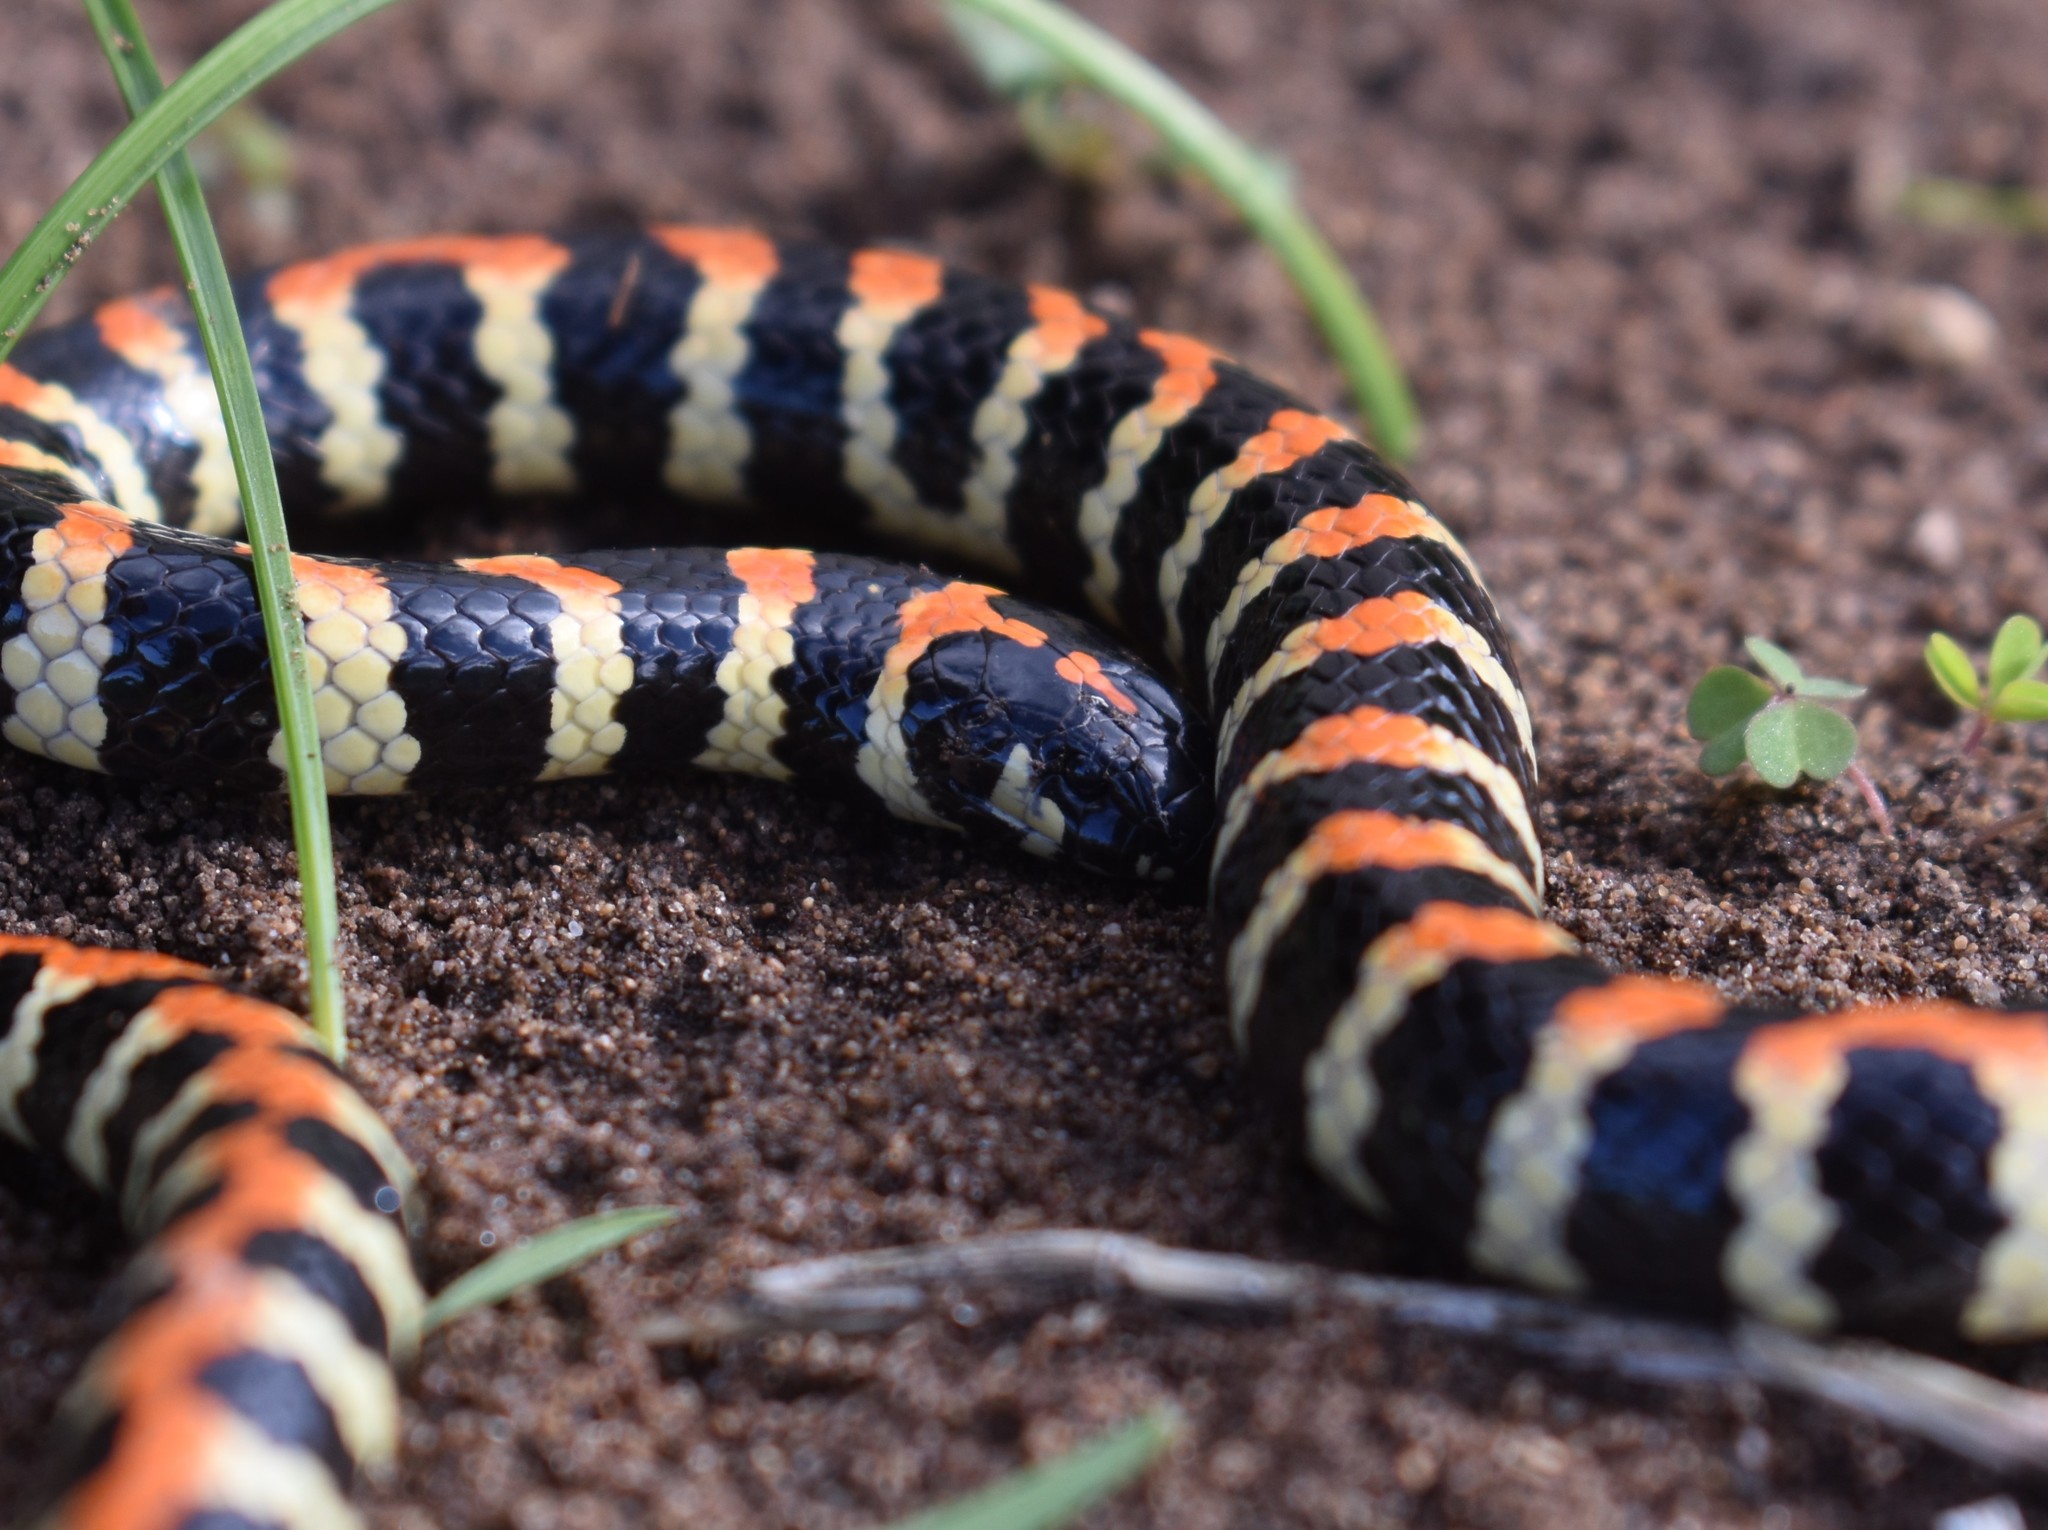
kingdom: Animalia
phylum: Chordata
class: Squamata
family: Atractaspididae
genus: Homoroselaps
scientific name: Homoroselaps lacteus
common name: Spotted harlequin snake
